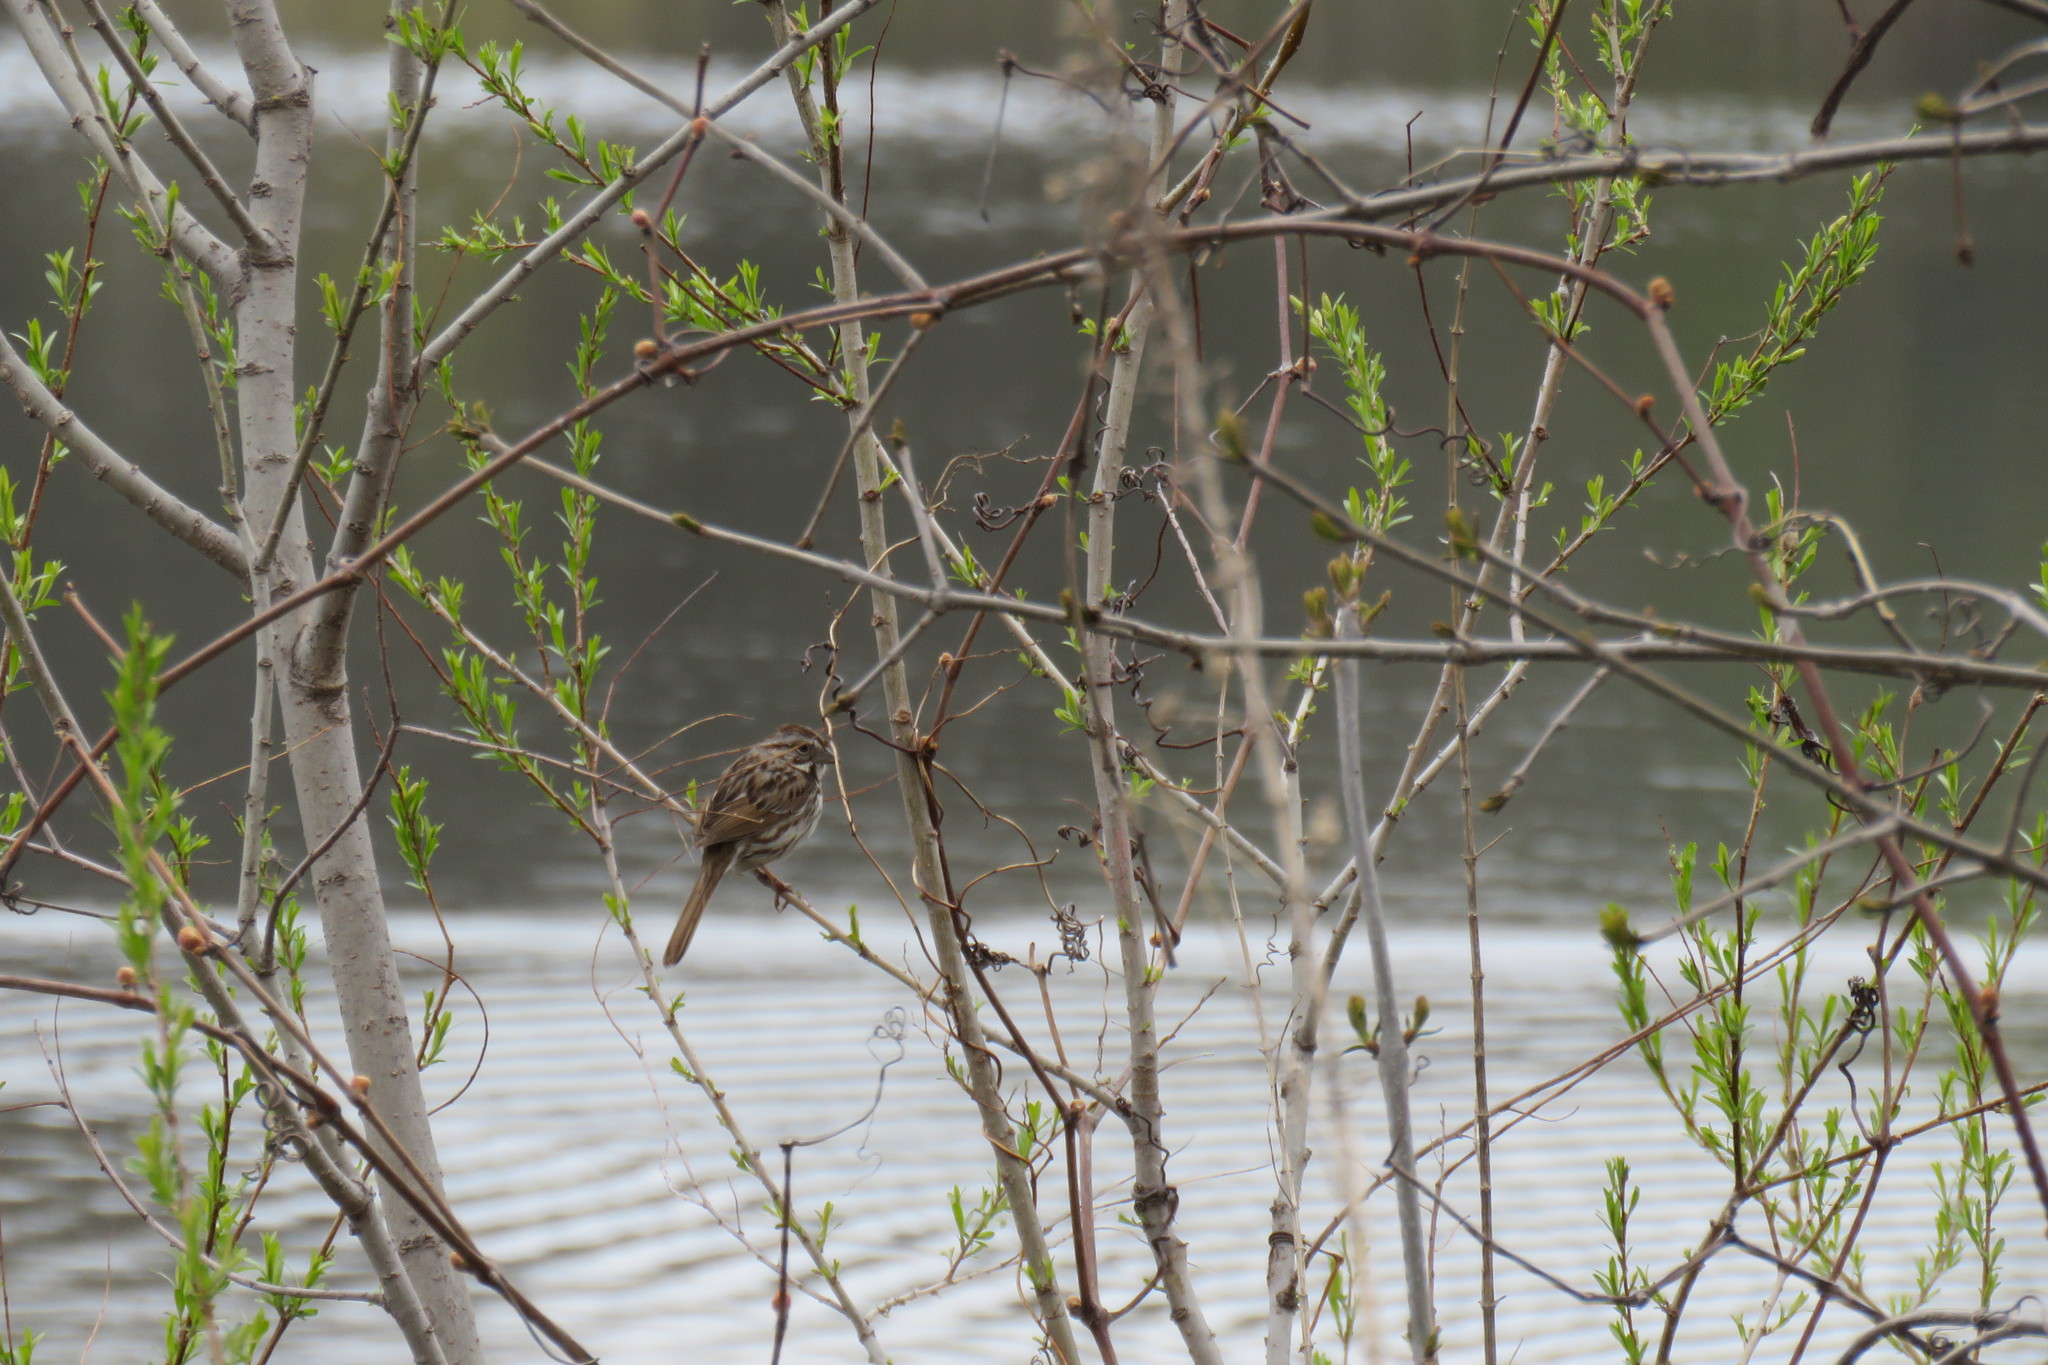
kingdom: Animalia
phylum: Chordata
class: Aves
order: Passeriformes
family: Passerellidae
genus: Melospiza
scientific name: Melospiza melodia
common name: Song sparrow
